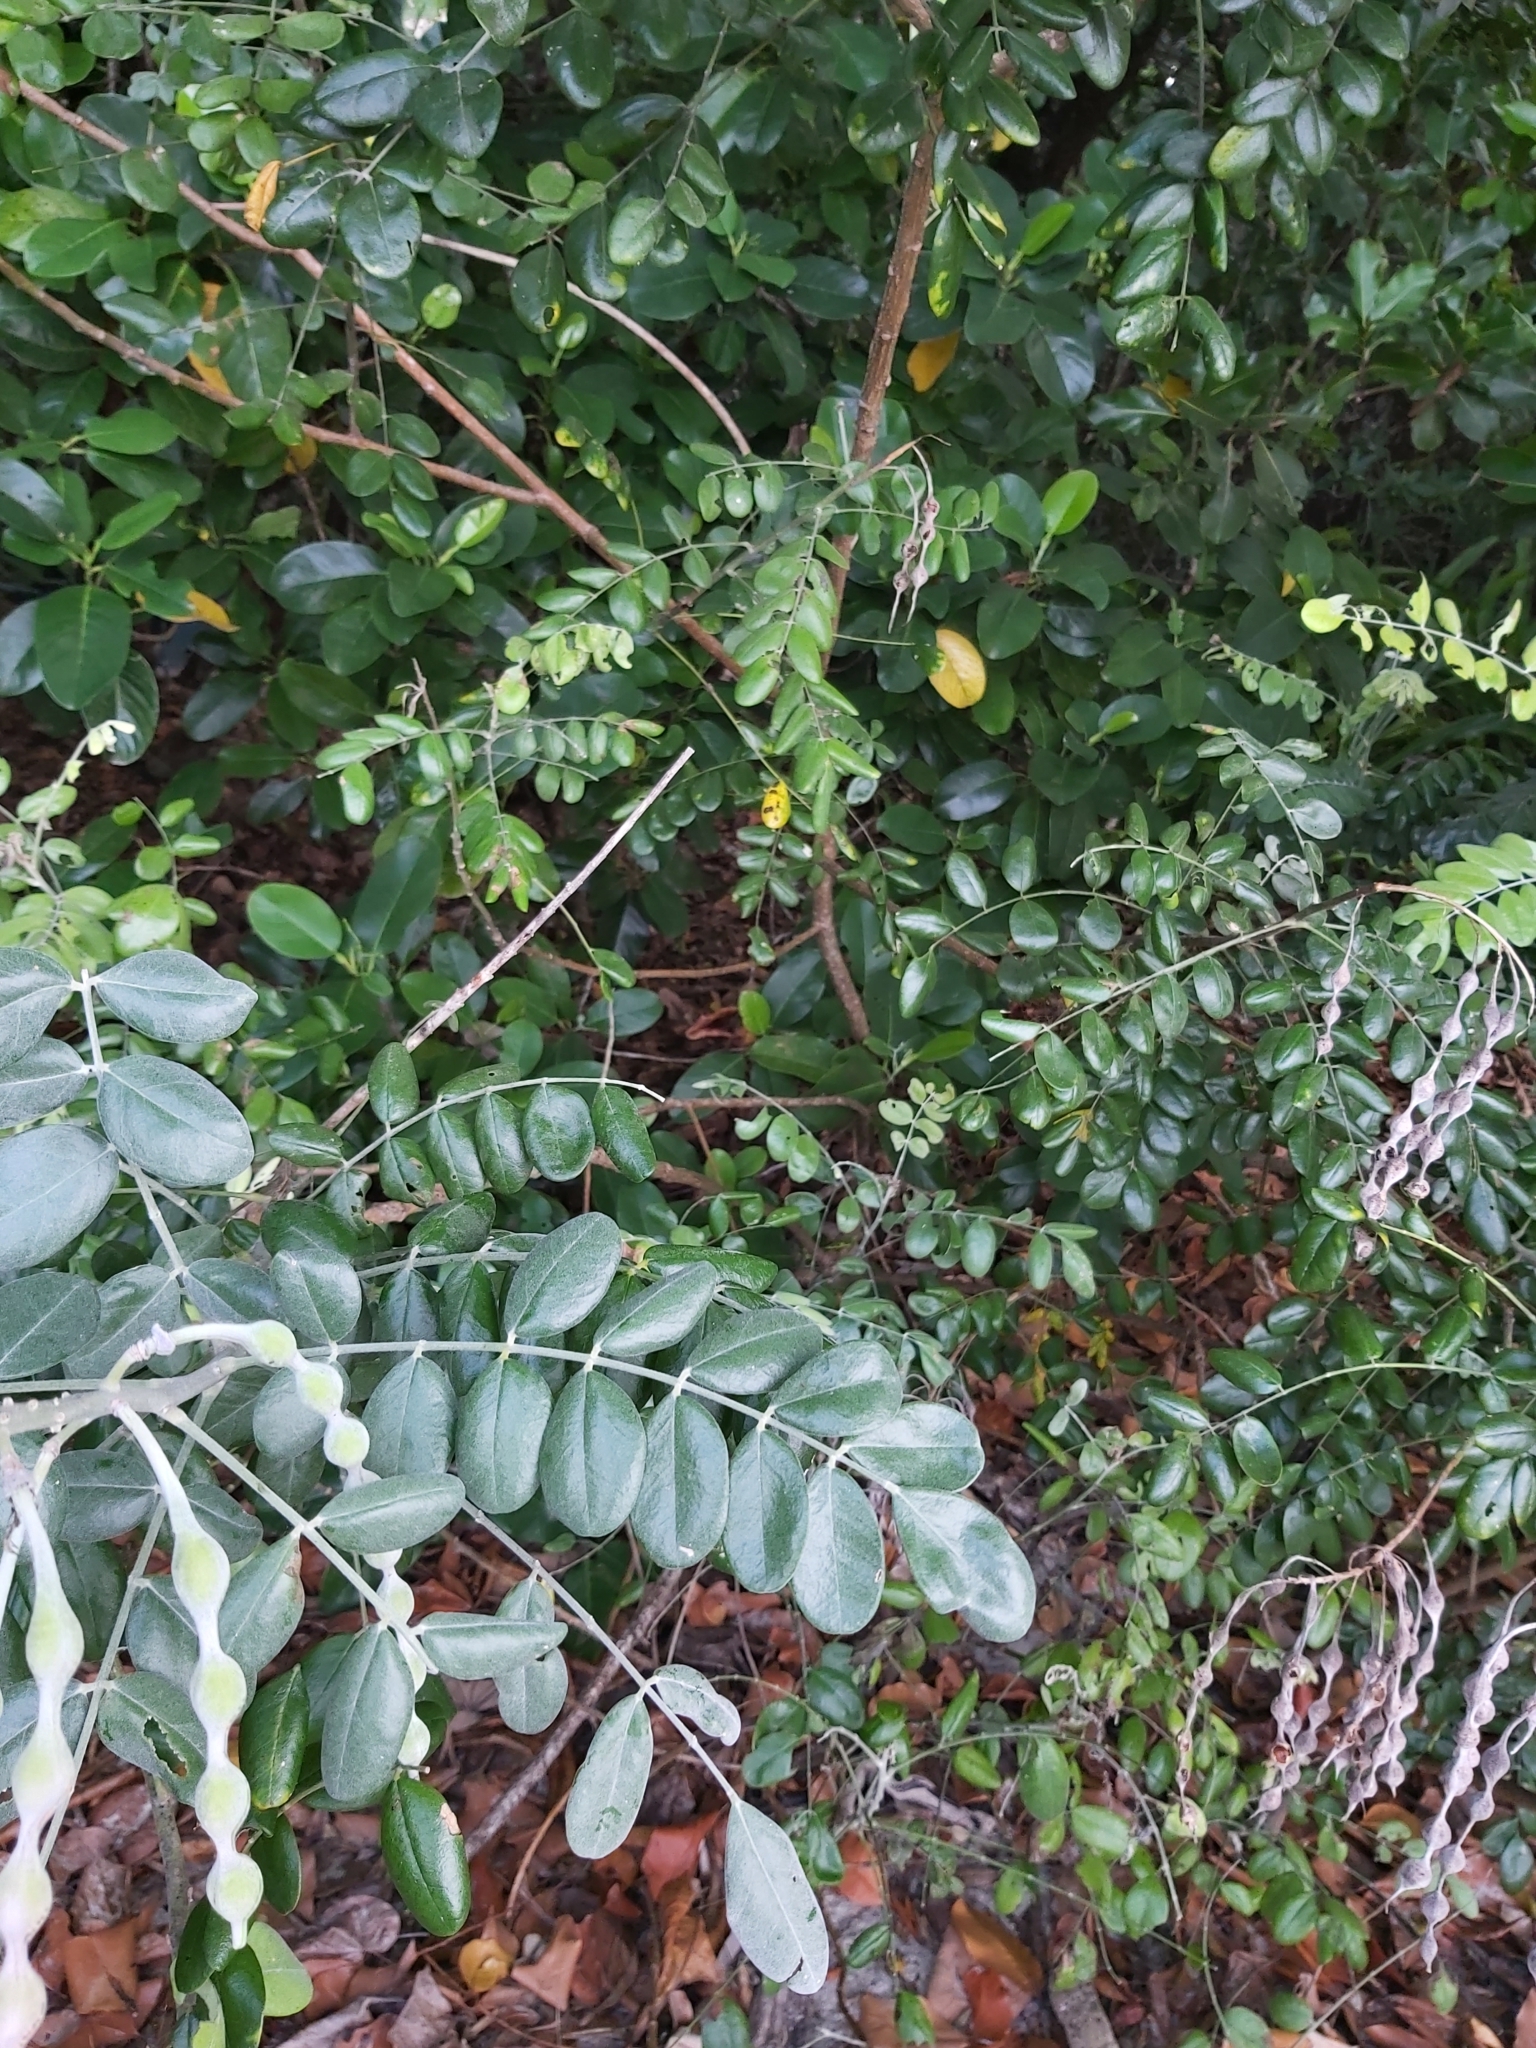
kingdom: Plantae
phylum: Tracheophyta
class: Magnoliopsida
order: Fabales
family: Fabaceae
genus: Sophora
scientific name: Sophora tomentosa
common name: Yellow necklacepod
